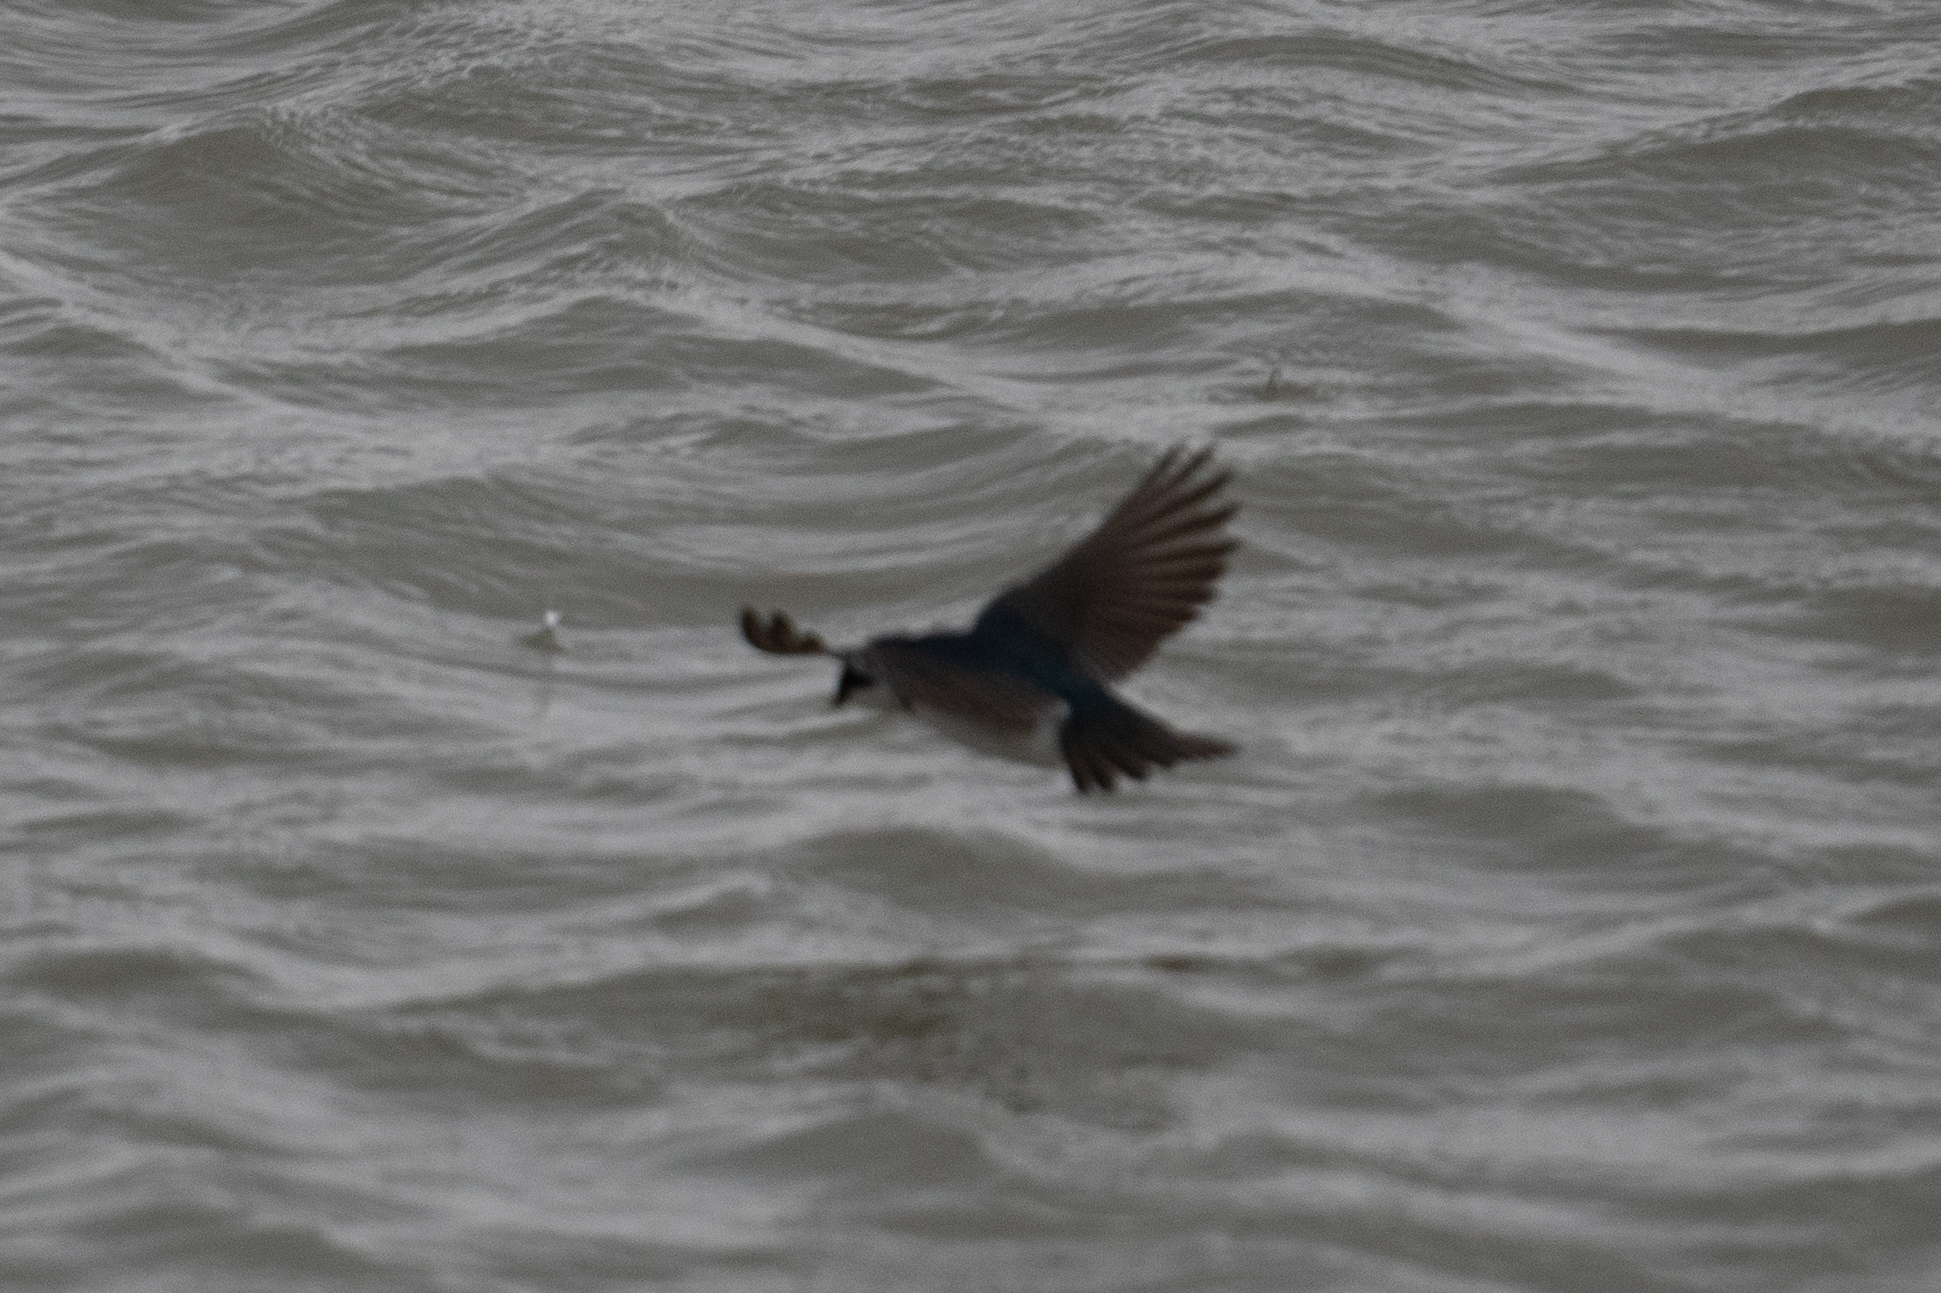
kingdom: Animalia
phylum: Chordata
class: Aves
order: Passeriformes
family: Hirundinidae
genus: Tachycineta
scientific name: Tachycineta bicolor
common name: Tree swallow
